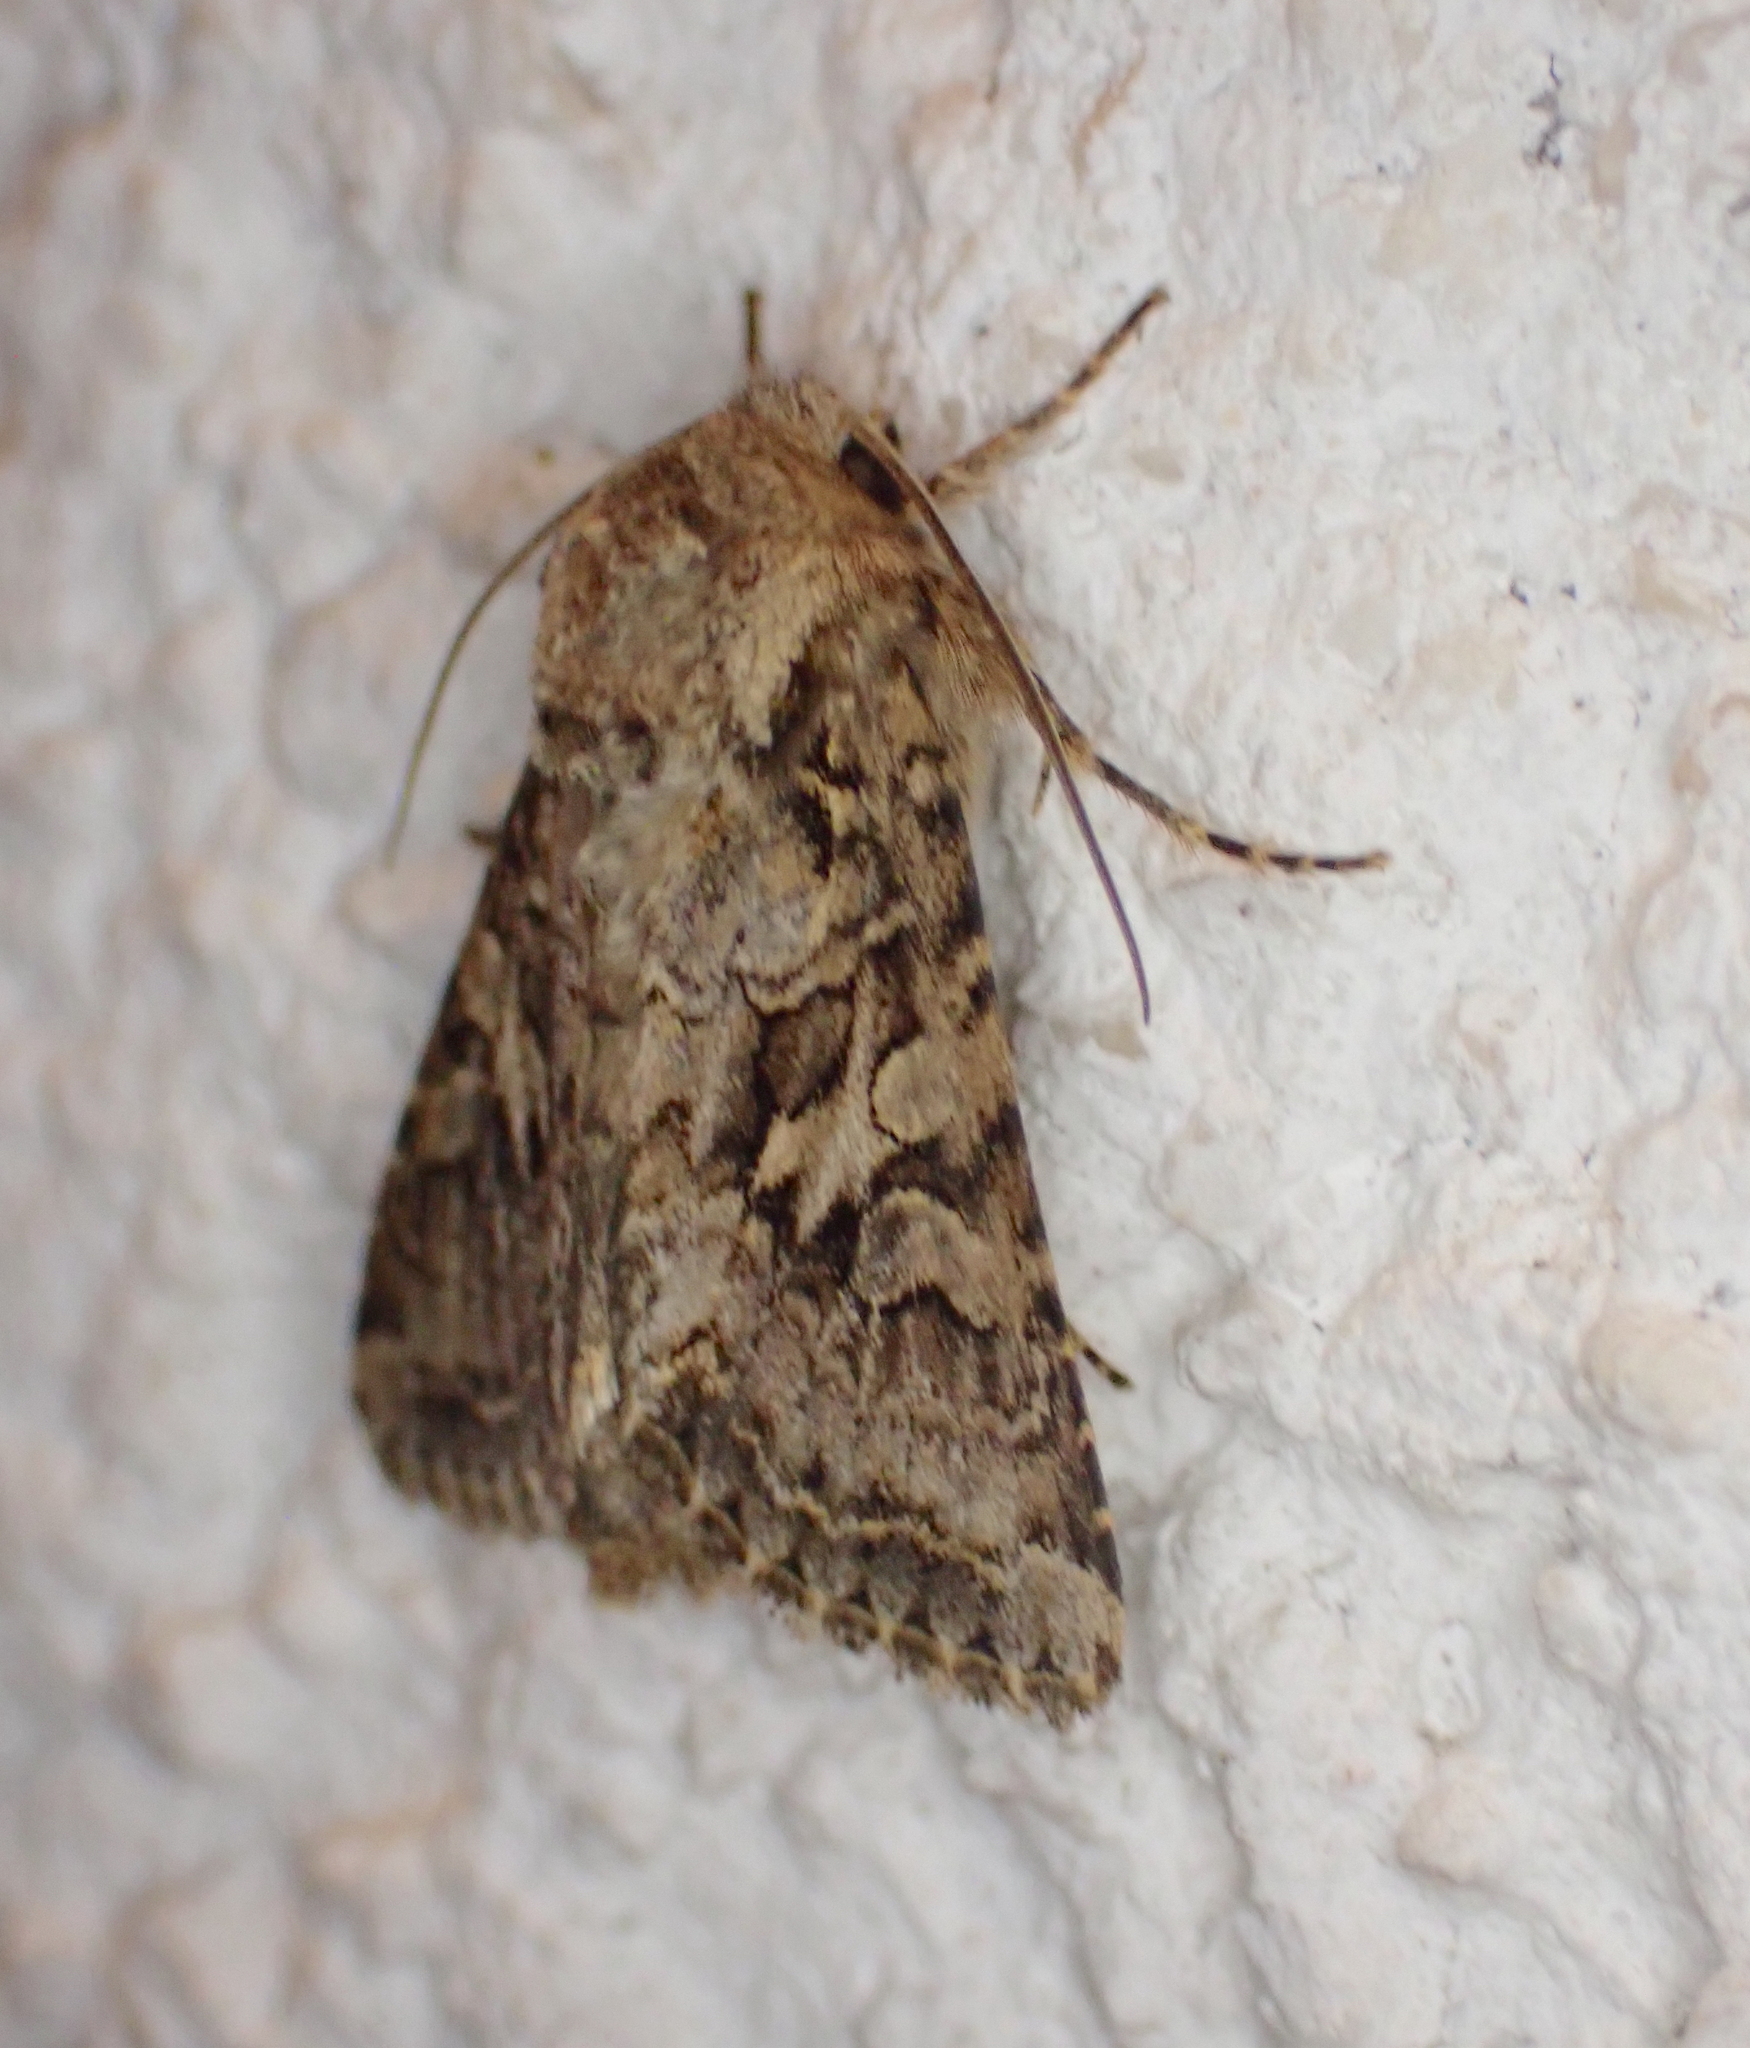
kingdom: Animalia
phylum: Arthropoda
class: Insecta
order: Lepidoptera
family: Noctuidae
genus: Hada
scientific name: Hada plebeja
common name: Shears
